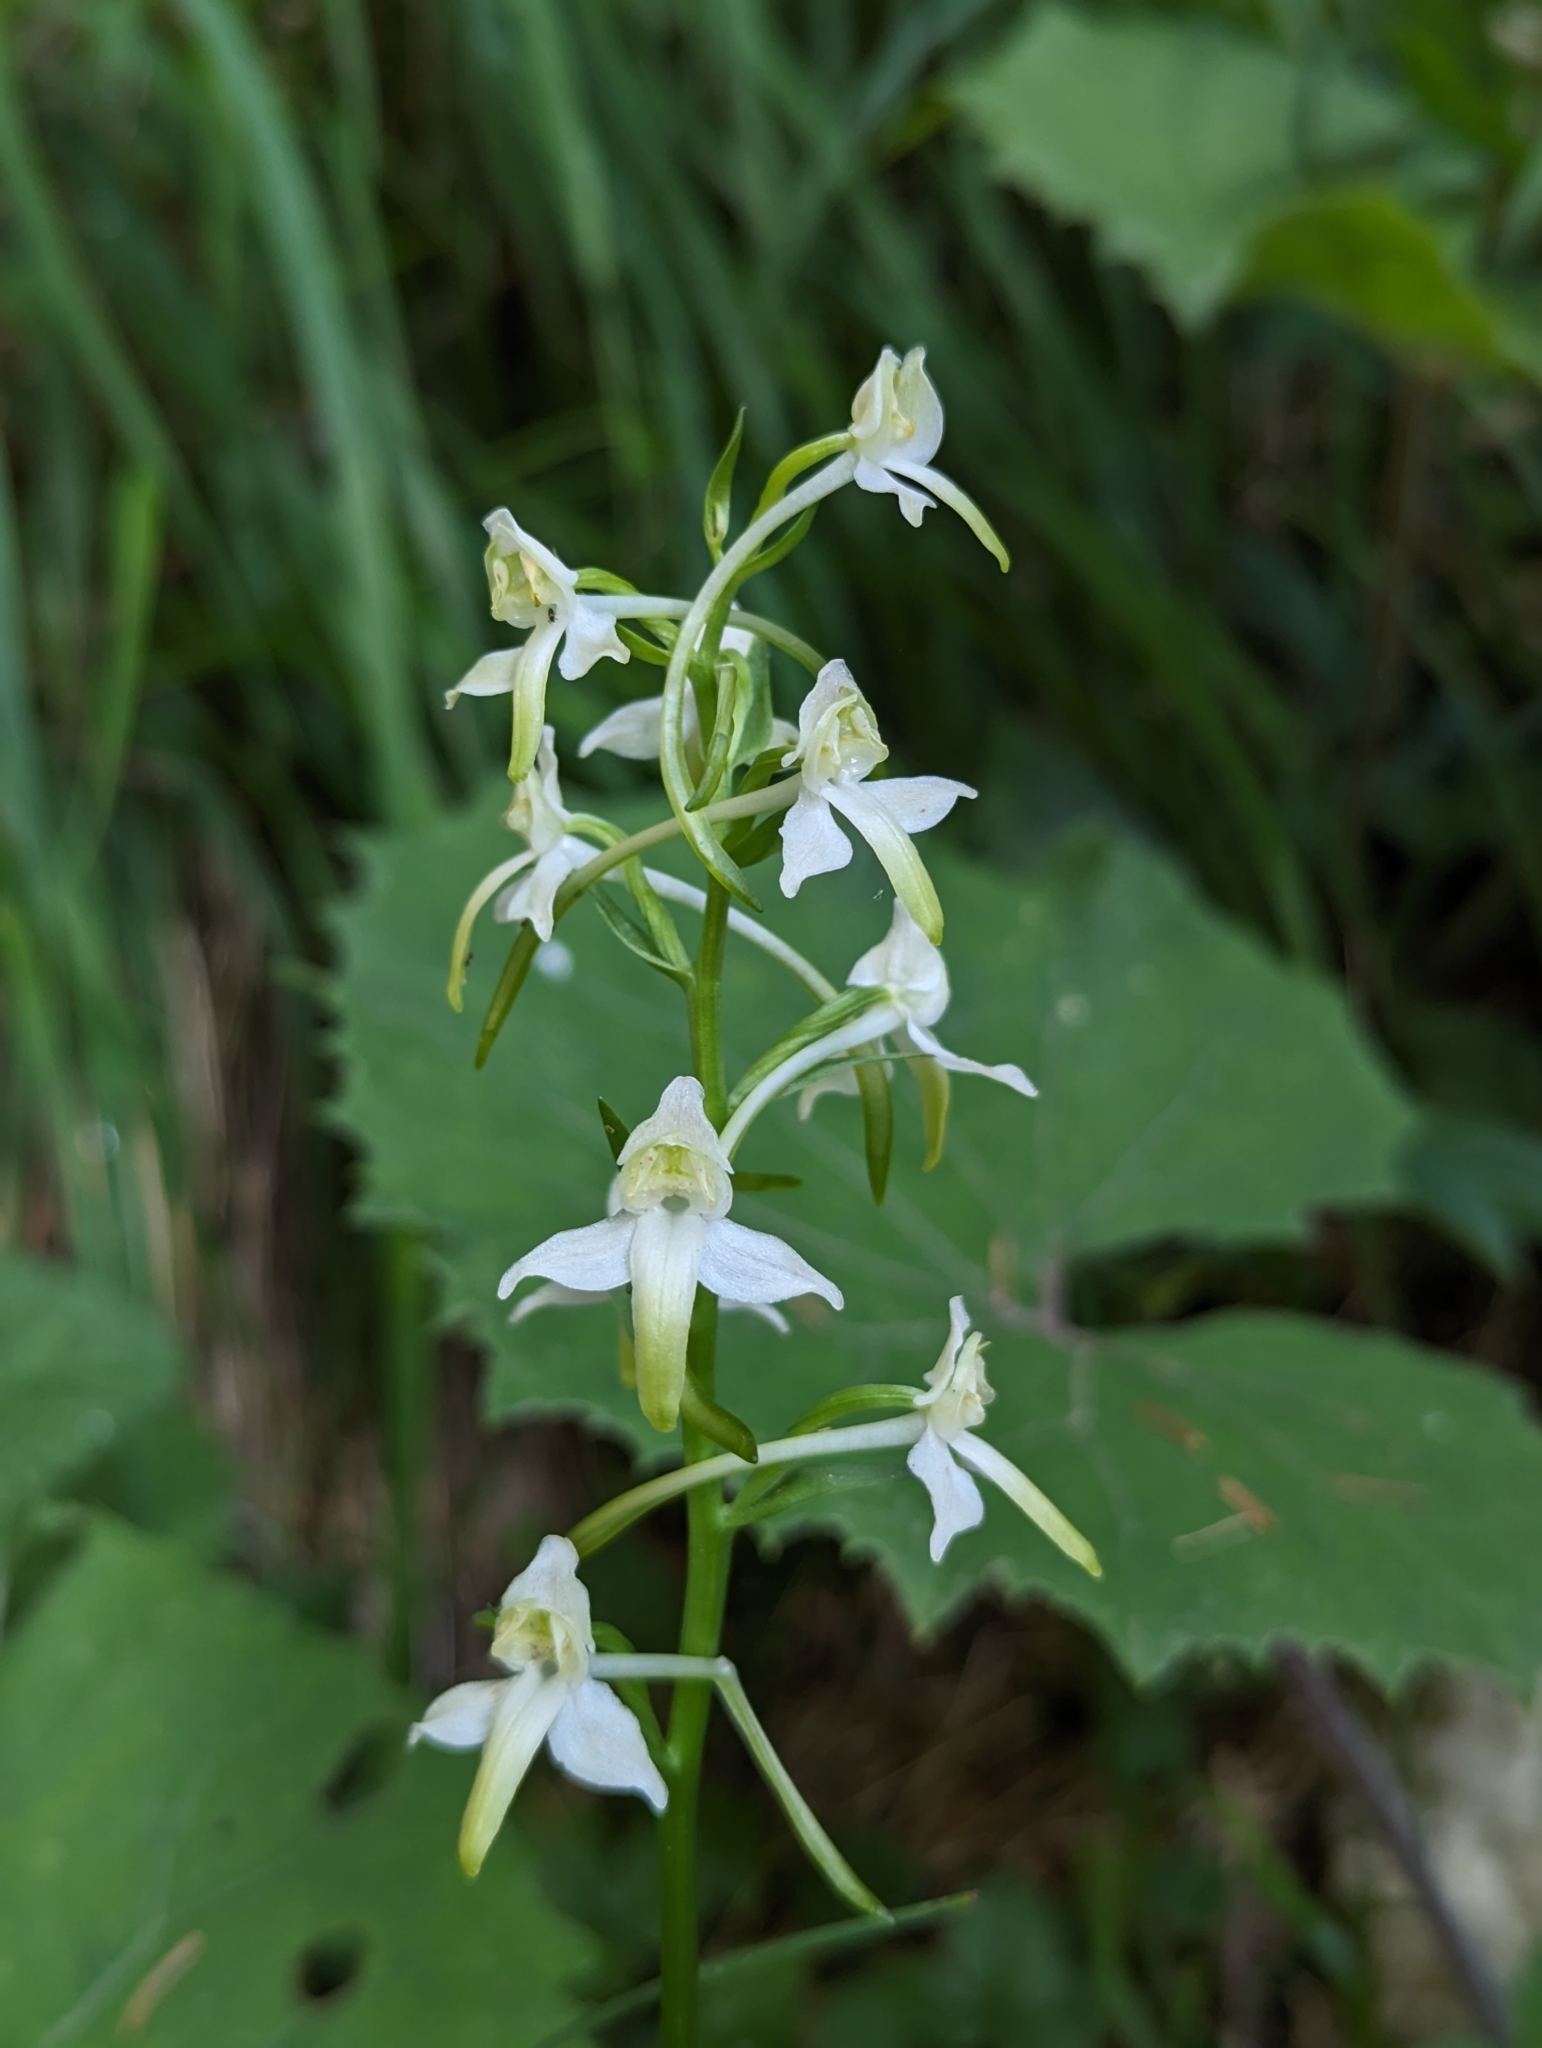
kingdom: Plantae
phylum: Tracheophyta
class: Liliopsida
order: Asparagales
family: Orchidaceae
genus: Platanthera
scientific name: Platanthera chlorantha
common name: Greater butterfly-orchid
